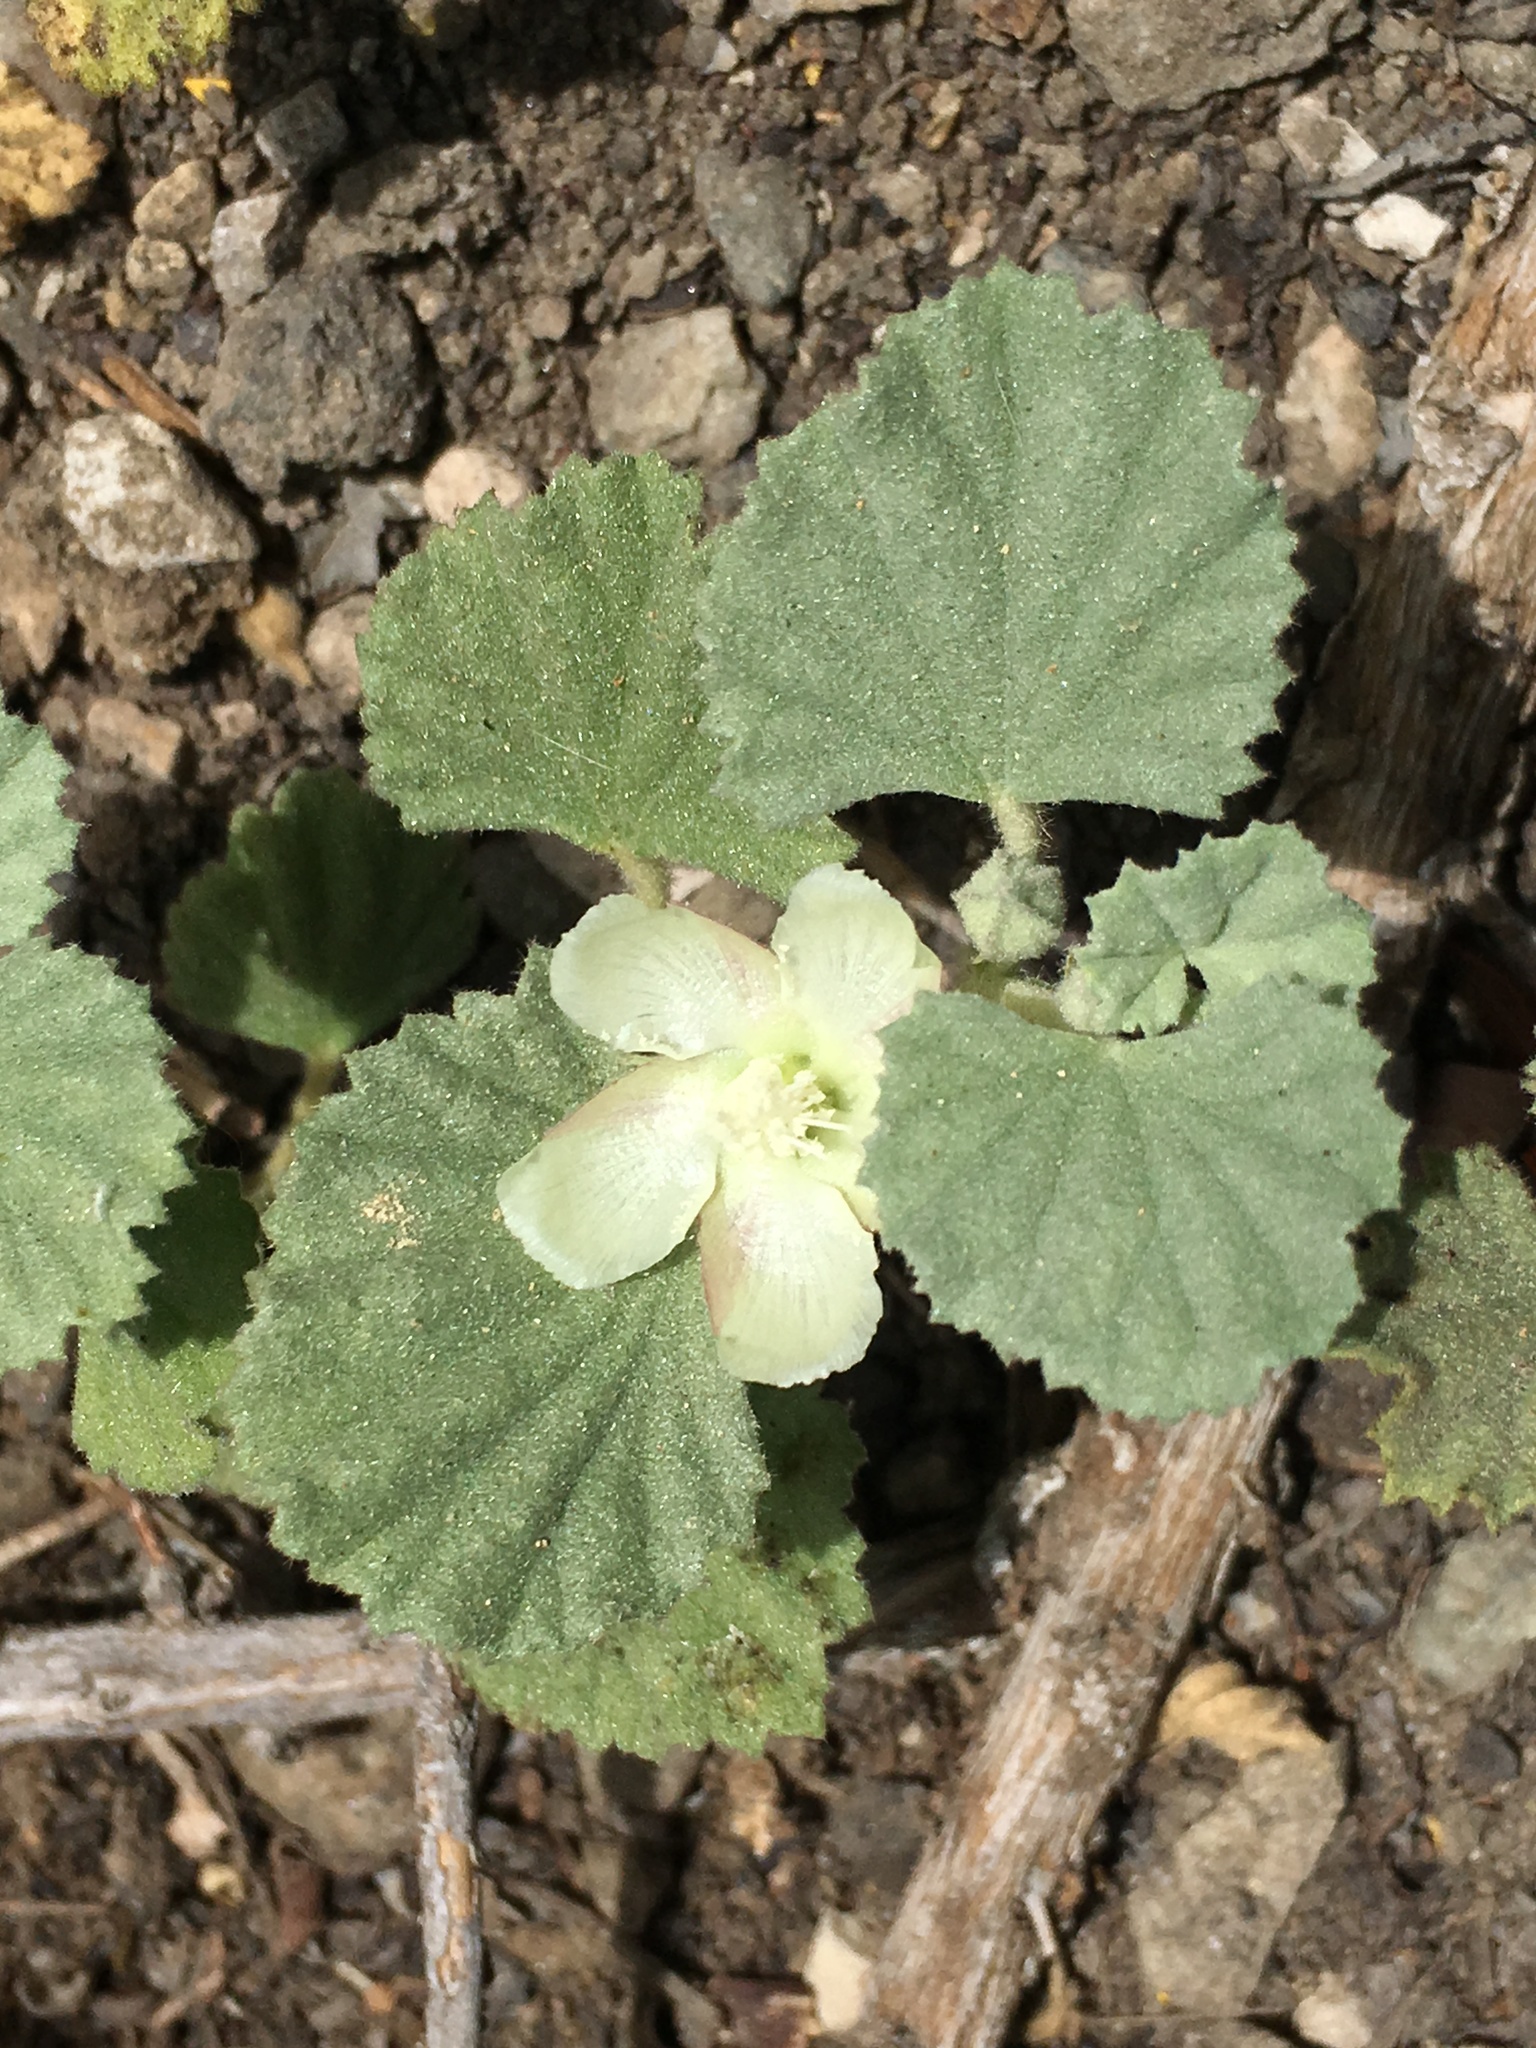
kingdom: Plantae
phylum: Tracheophyta
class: Magnoliopsida
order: Malvales
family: Malvaceae
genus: Malvella
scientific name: Malvella leprosa
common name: Alkali-mallow
